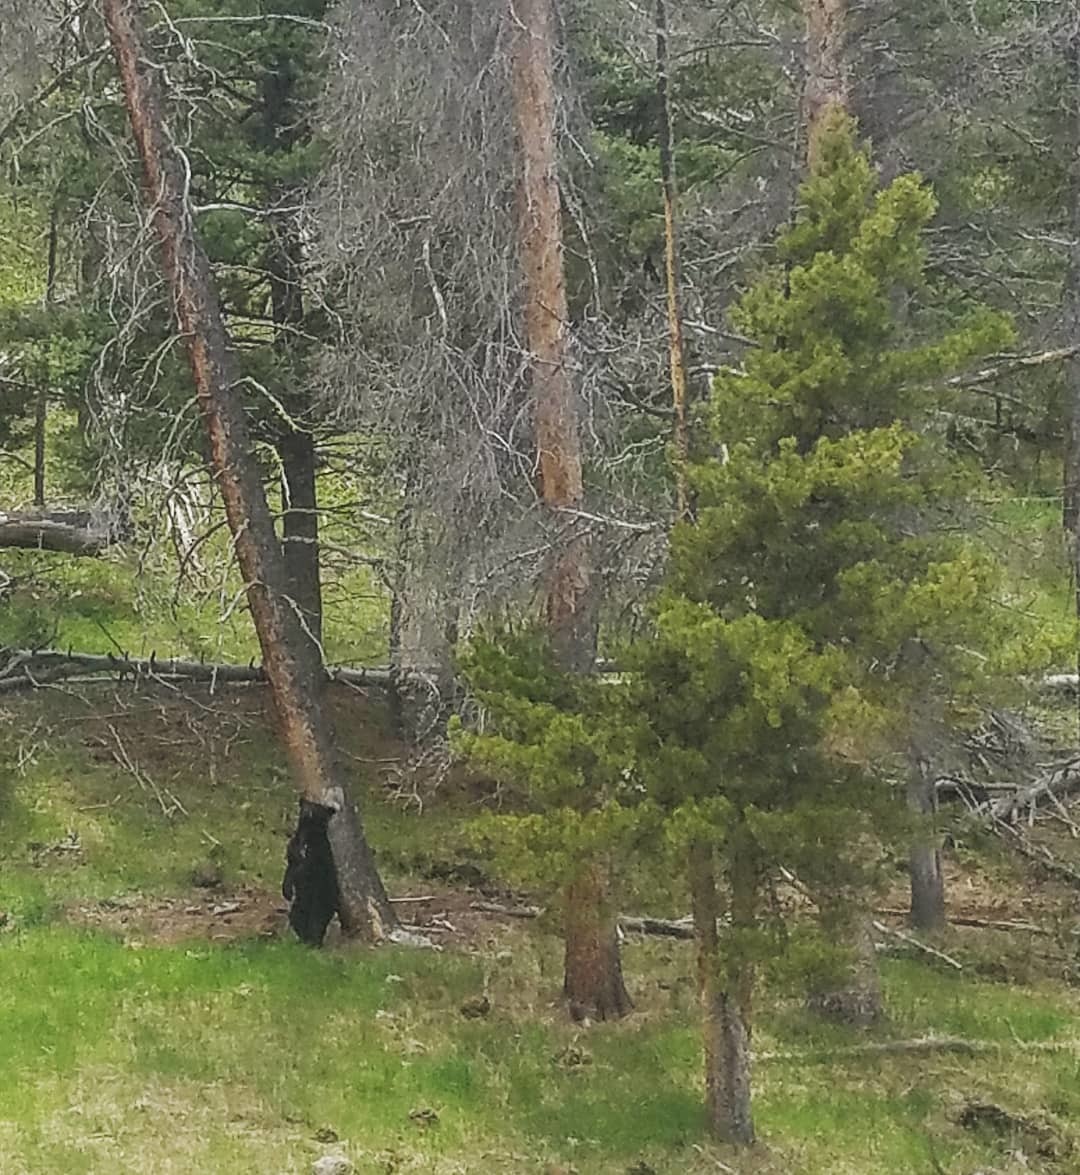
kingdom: Animalia
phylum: Chordata
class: Mammalia
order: Carnivora
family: Ursidae
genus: Ursus
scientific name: Ursus americanus
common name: American black bear
